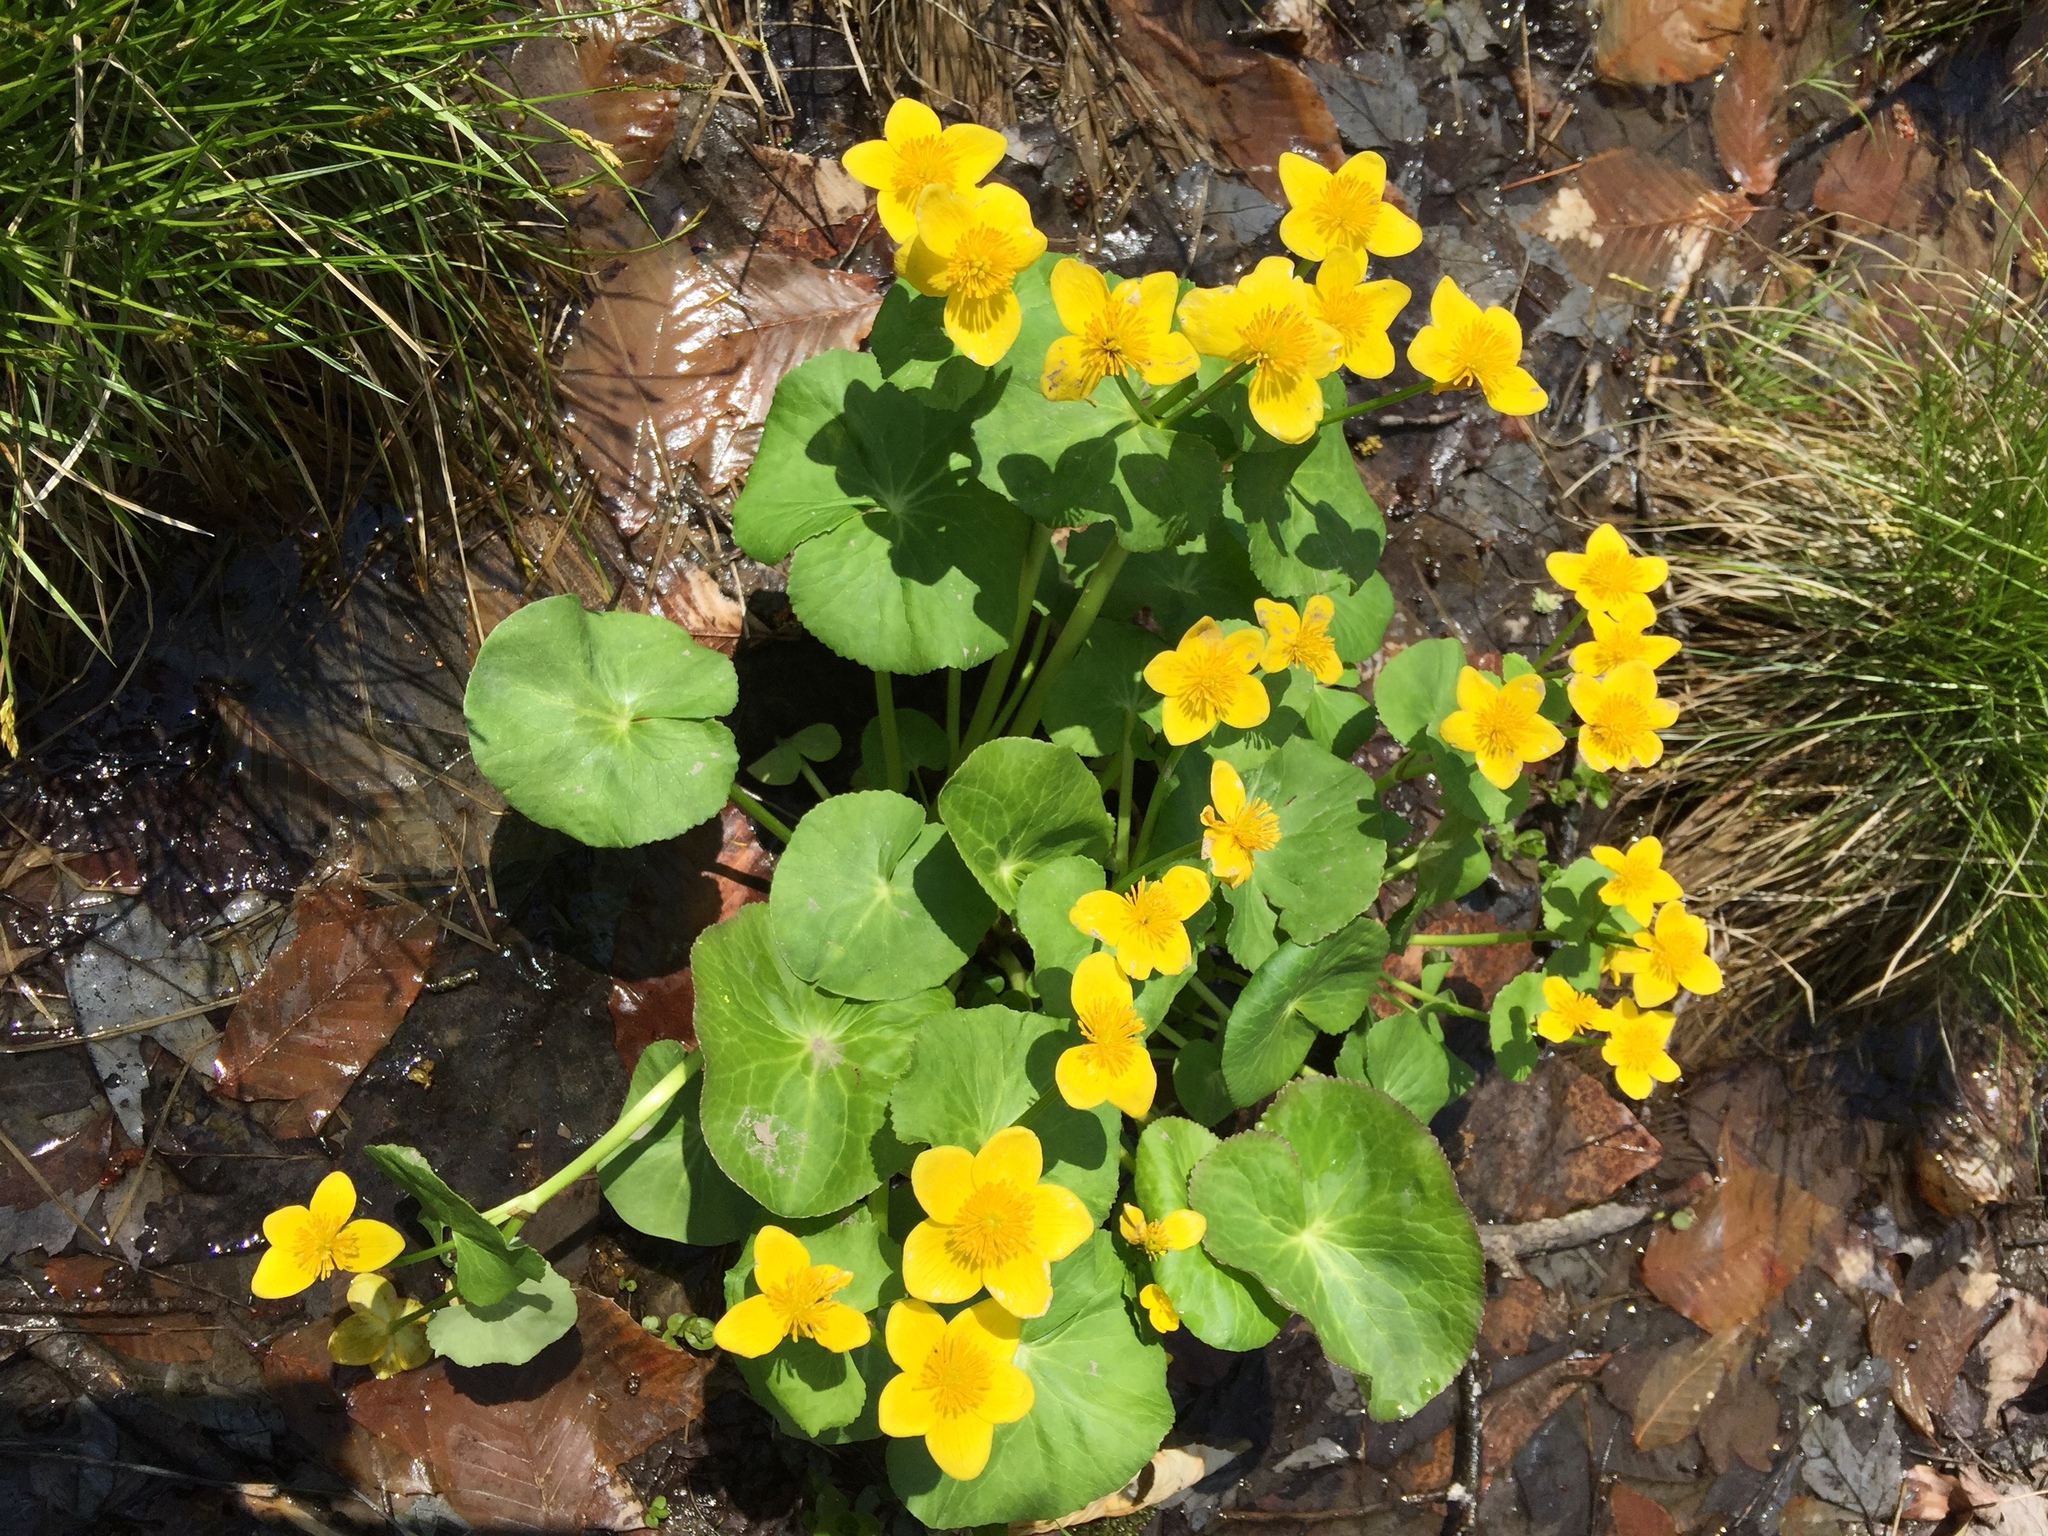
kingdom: Plantae
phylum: Tracheophyta
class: Magnoliopsida
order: Ranunculales
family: Ranunculaceae
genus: Caltha
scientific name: Caltha palustris
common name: Marsh marigold
